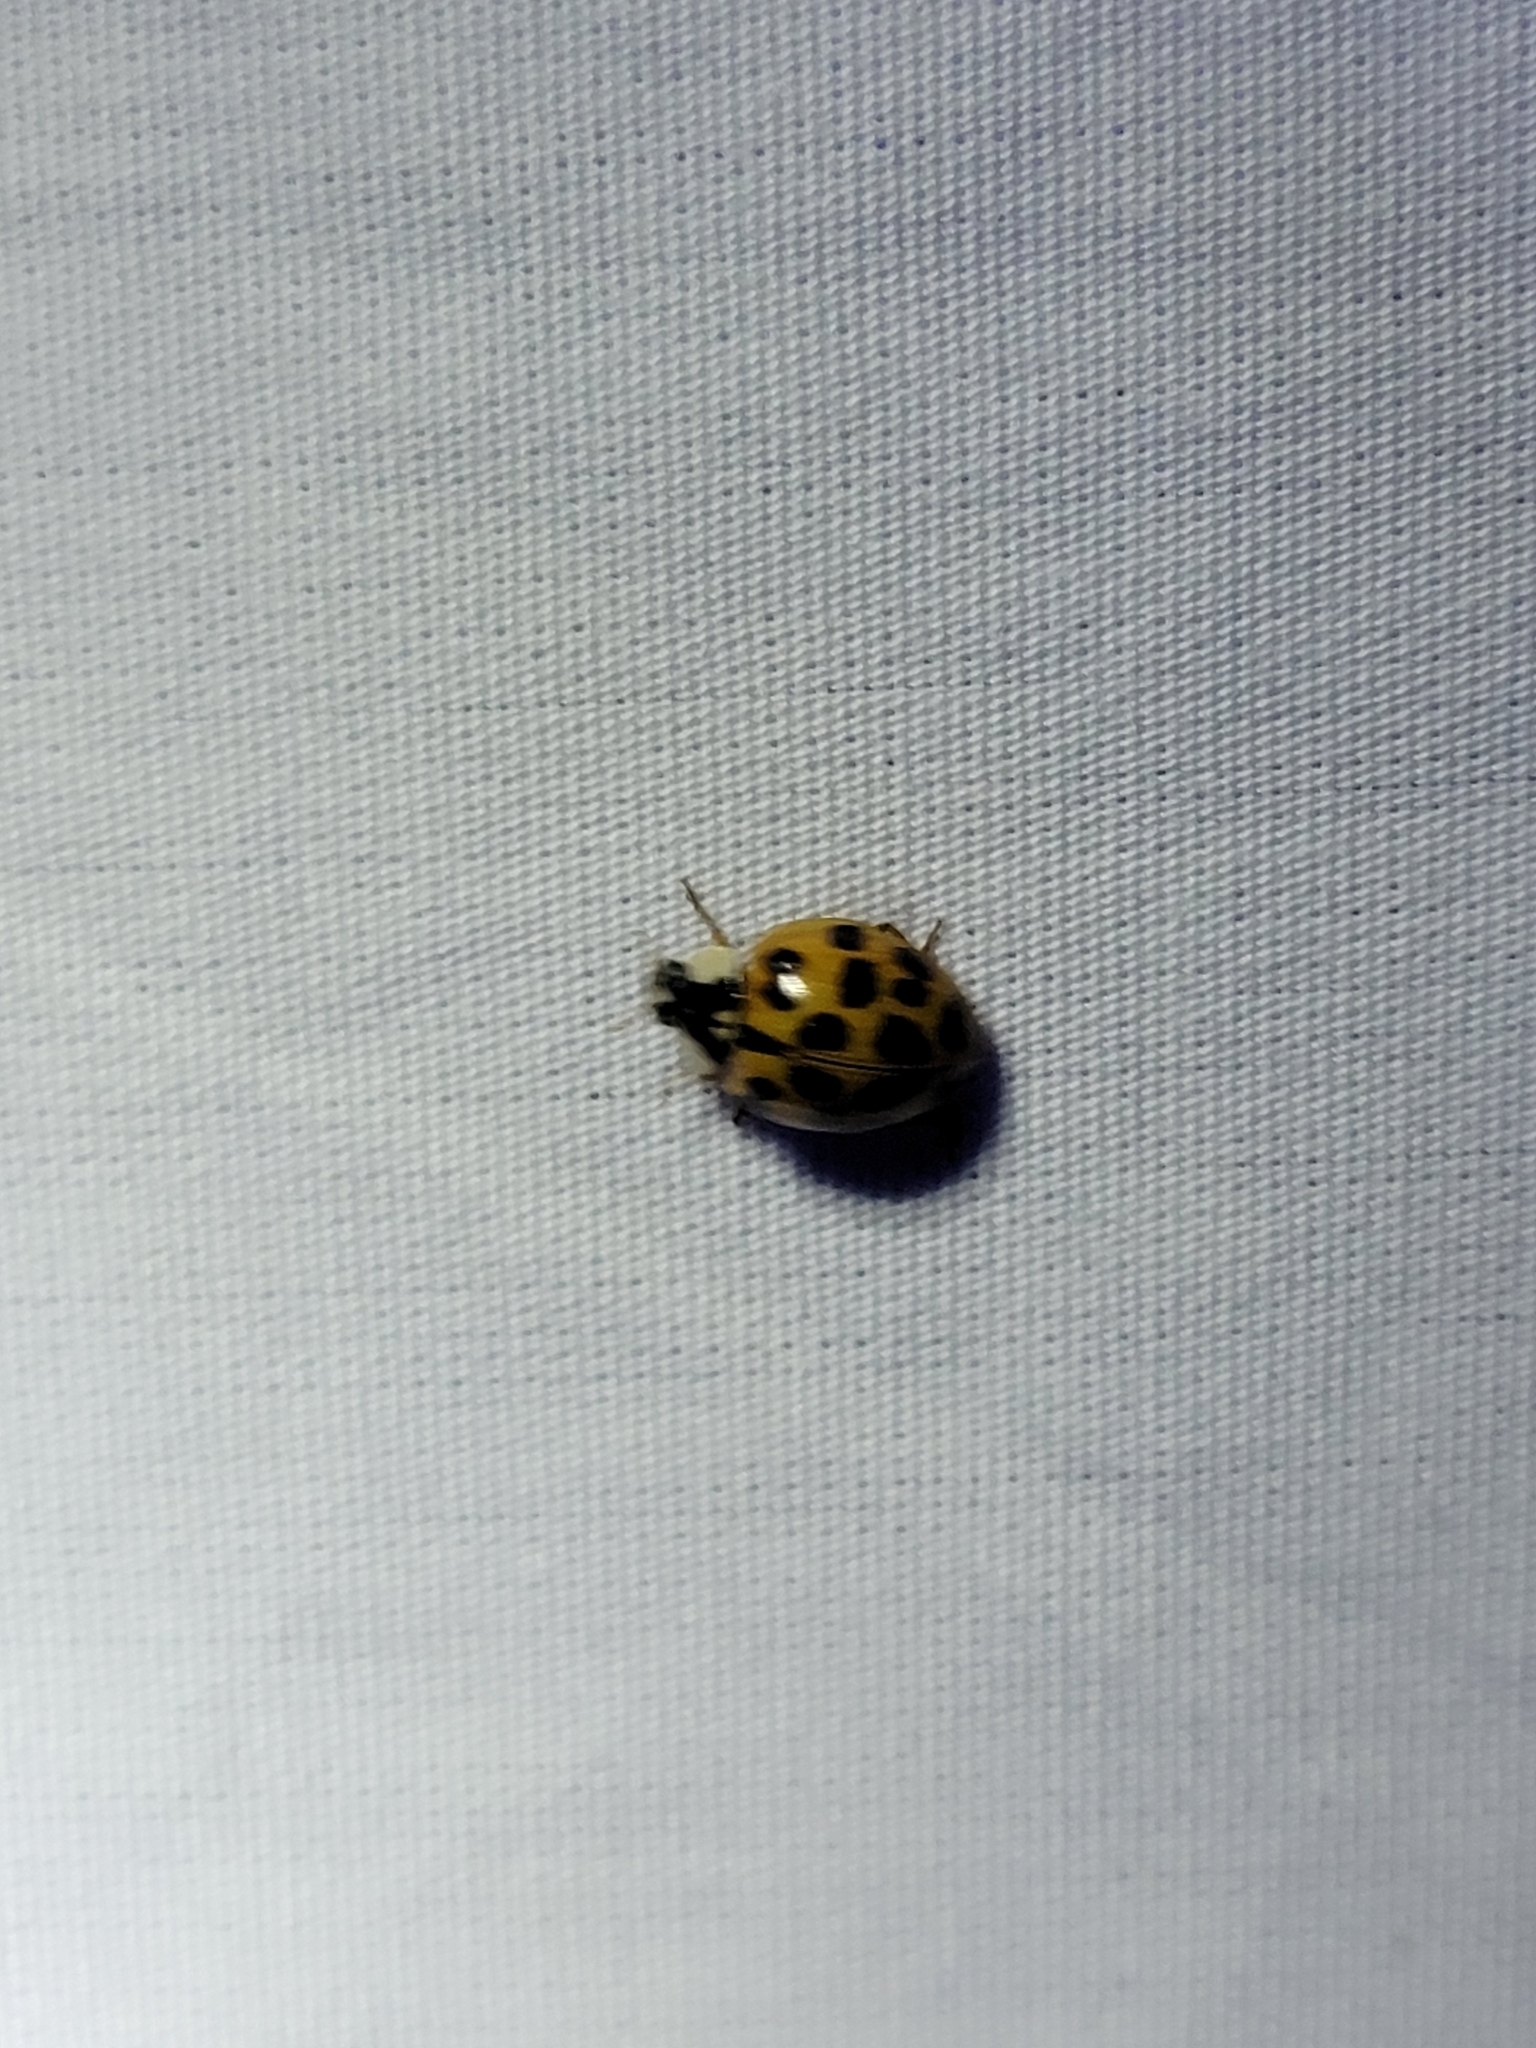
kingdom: Animalia
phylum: Arthropoda
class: Insecta
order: Coleoptera
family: Coccinellidae
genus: Harmonia
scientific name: Harmonia axyridis
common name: Harlequin ladybird
